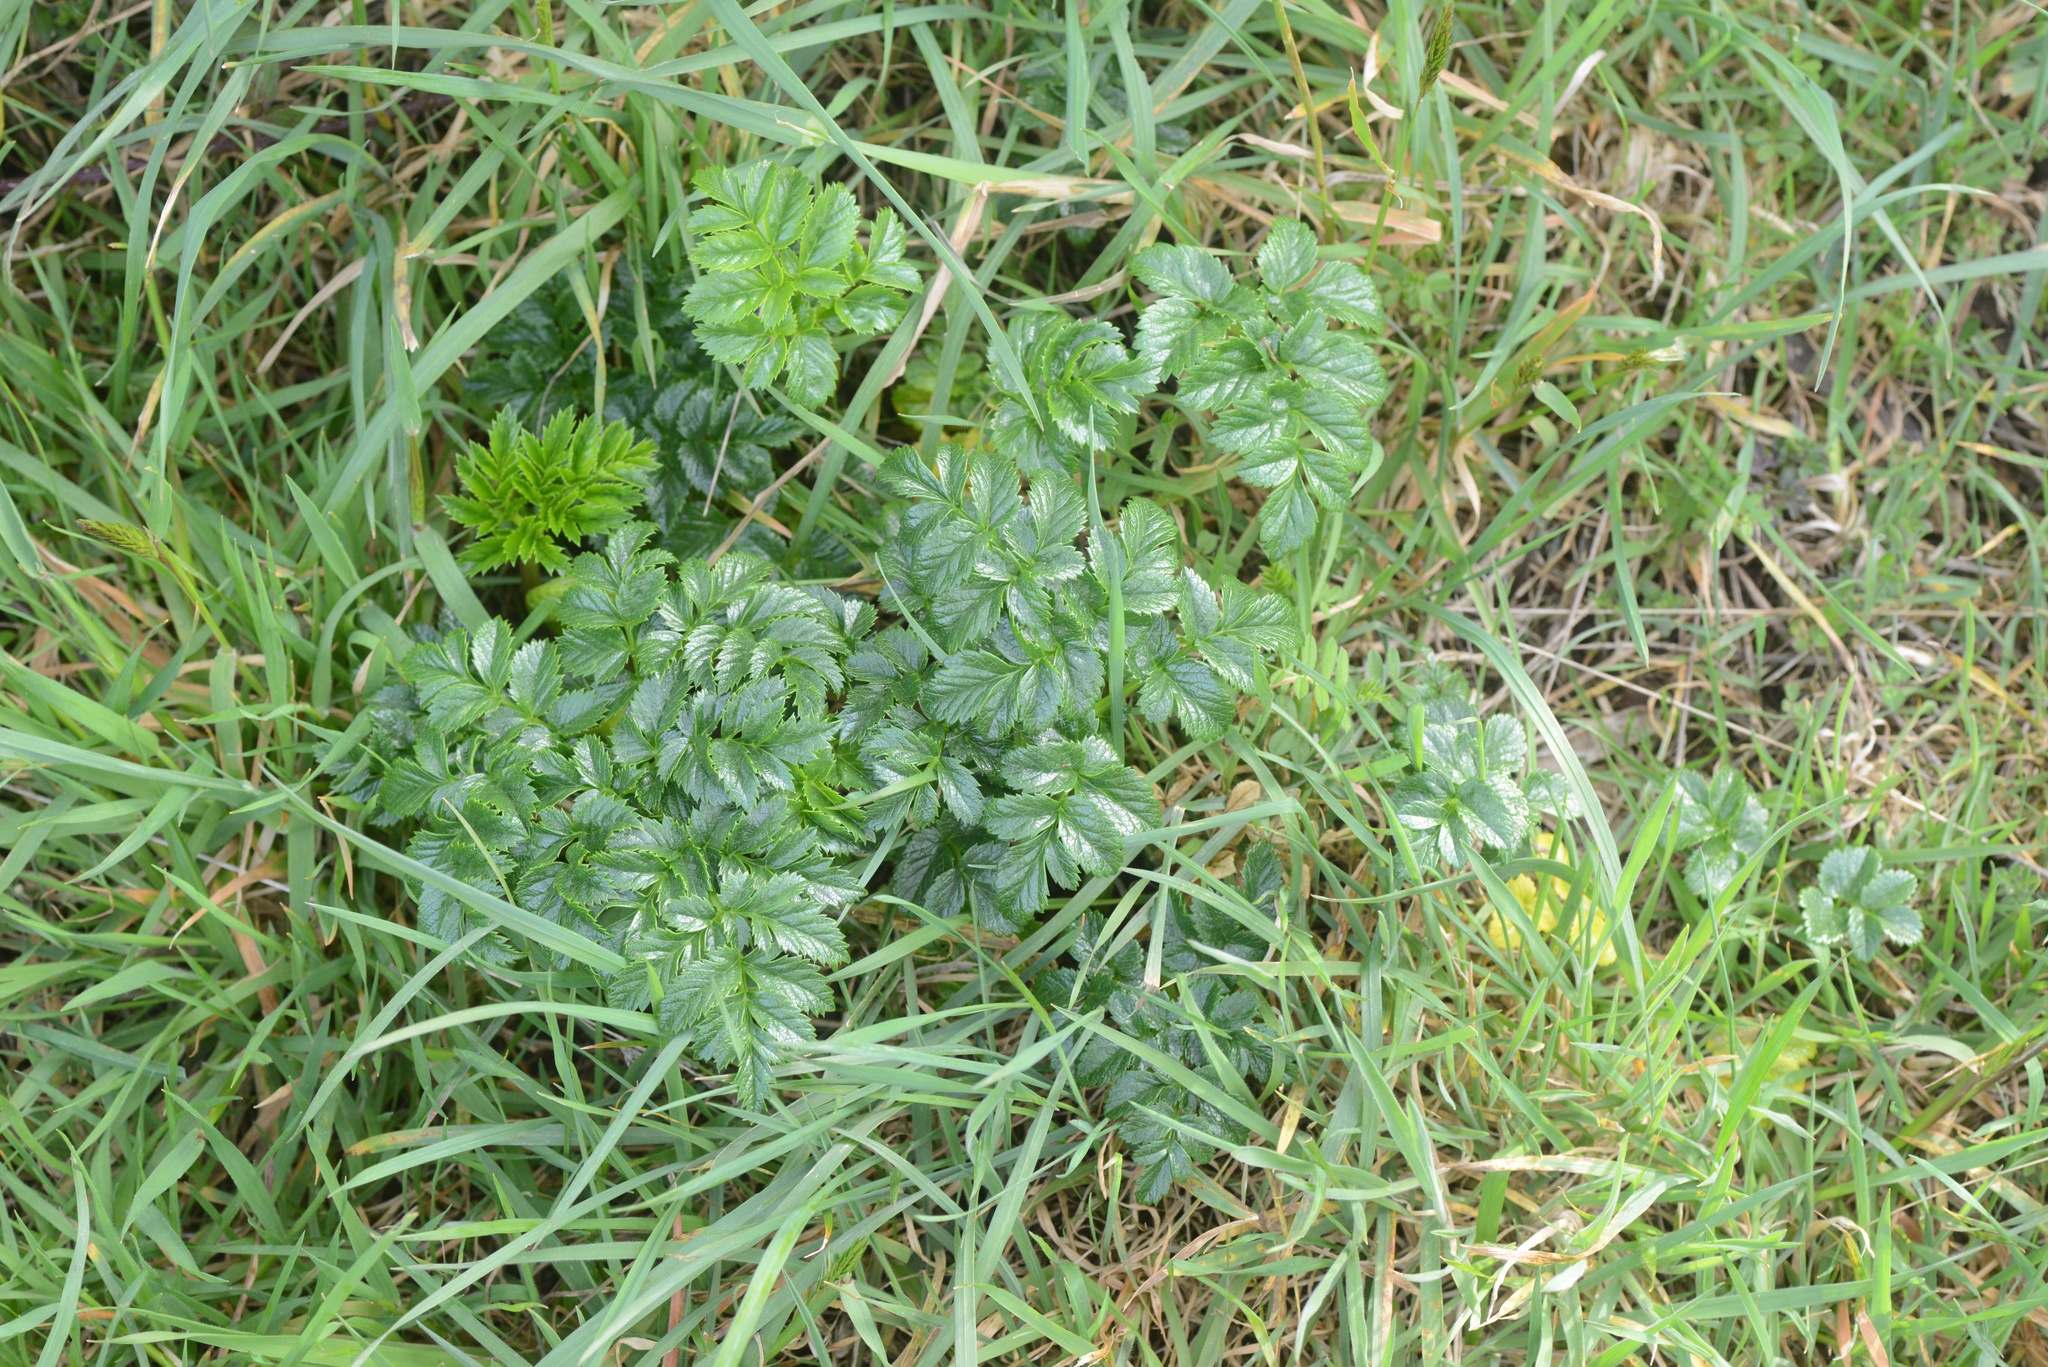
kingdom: Plantae
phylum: Tracheophyta
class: Magnoliopsida
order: Apiales
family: Apiaceae
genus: Angelica
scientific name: Angelica pachycarpa
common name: Portuguese angelica
